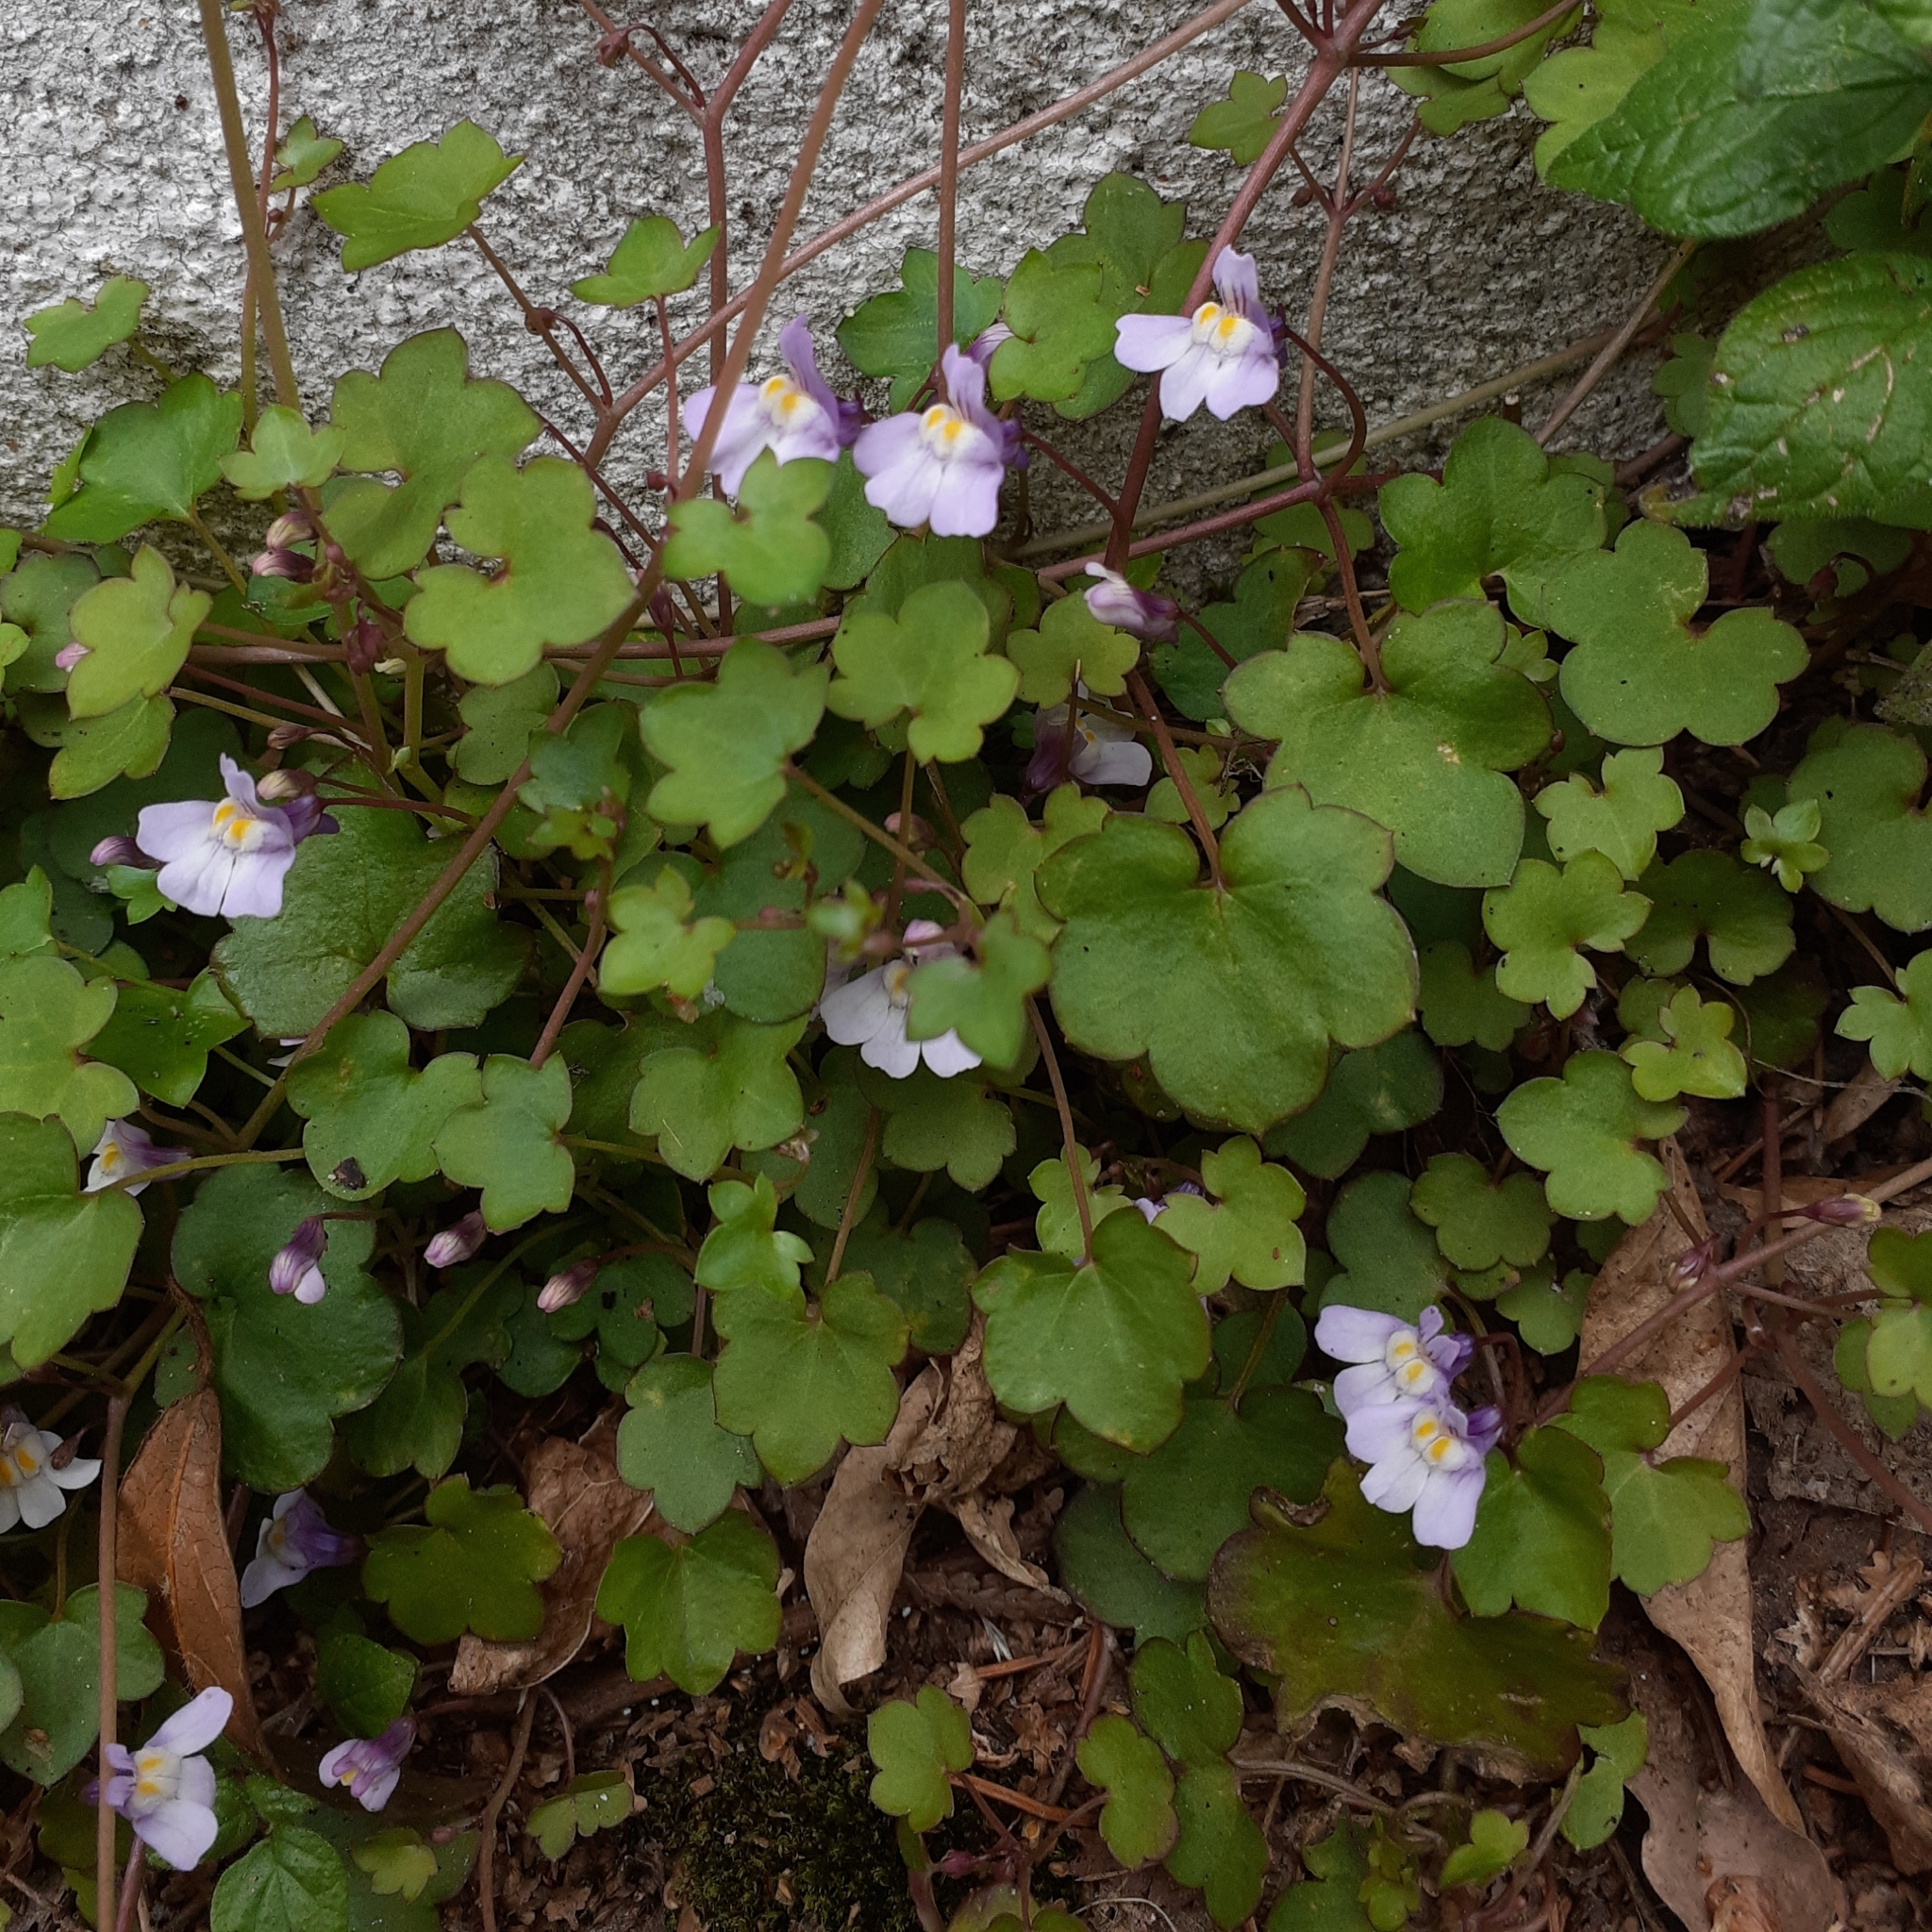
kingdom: Plantae
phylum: Tracheophyta
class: Magnoliopsida
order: Lamiales
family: Plantaginaceae
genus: Cymbalaria
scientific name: Cymbalaria muralis
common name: Ivy-leaved toadflax
